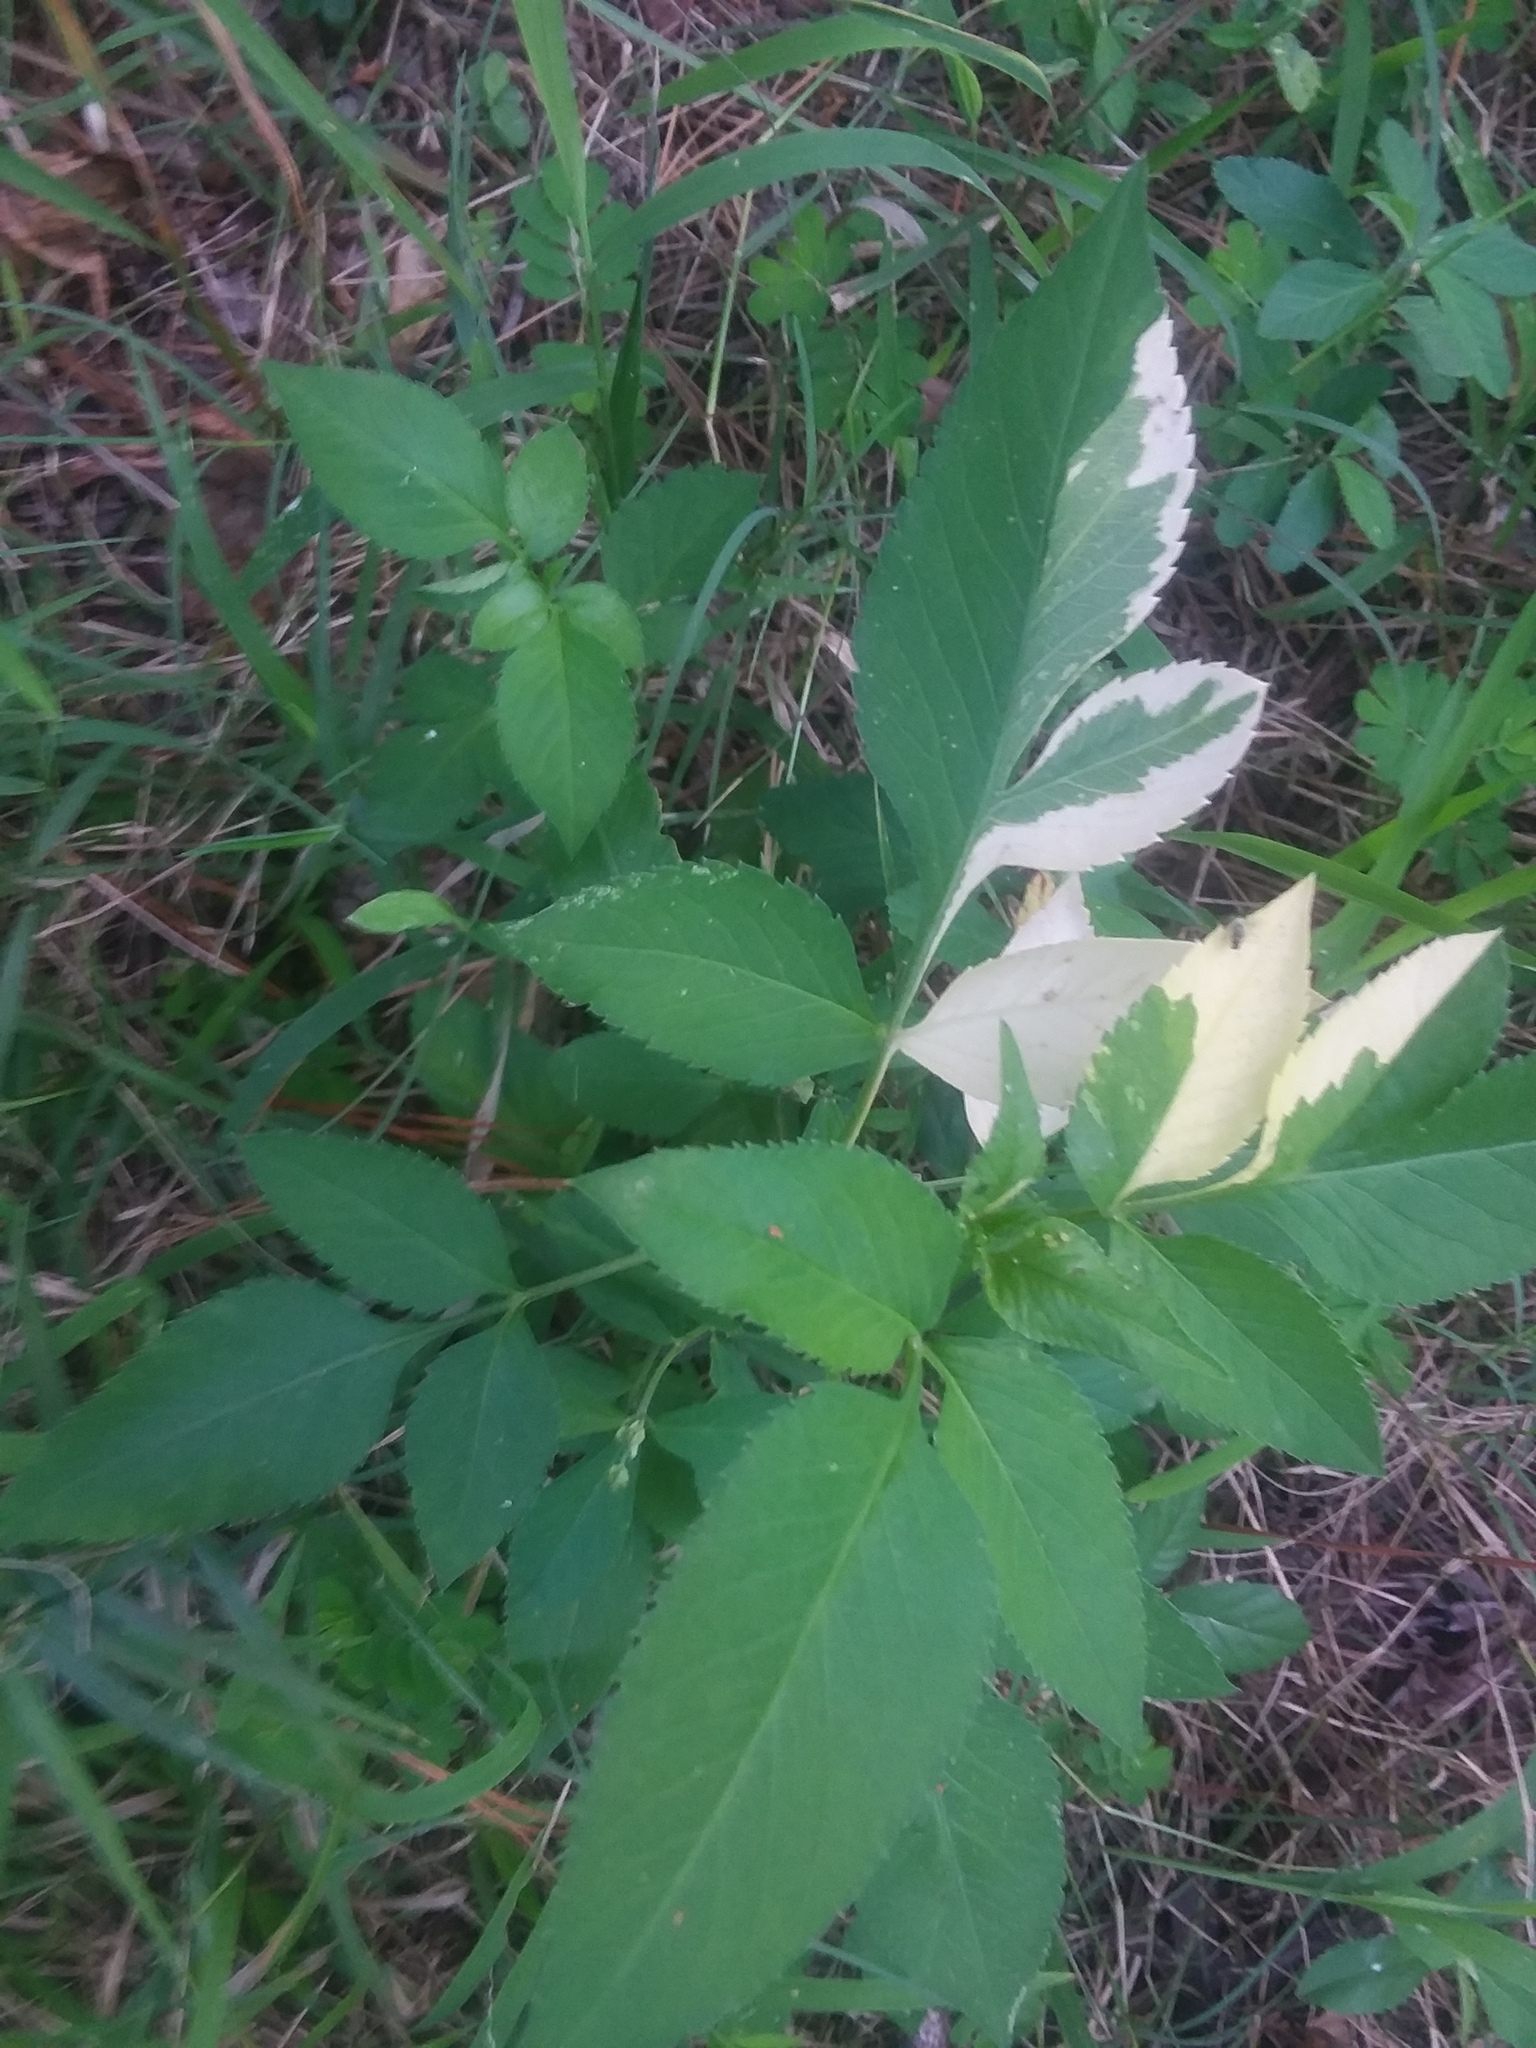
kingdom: Plantae
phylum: Tracheophyta
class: Magnoliopsida
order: Asterales
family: Asteraceae
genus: Bidens
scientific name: Bidens alba
